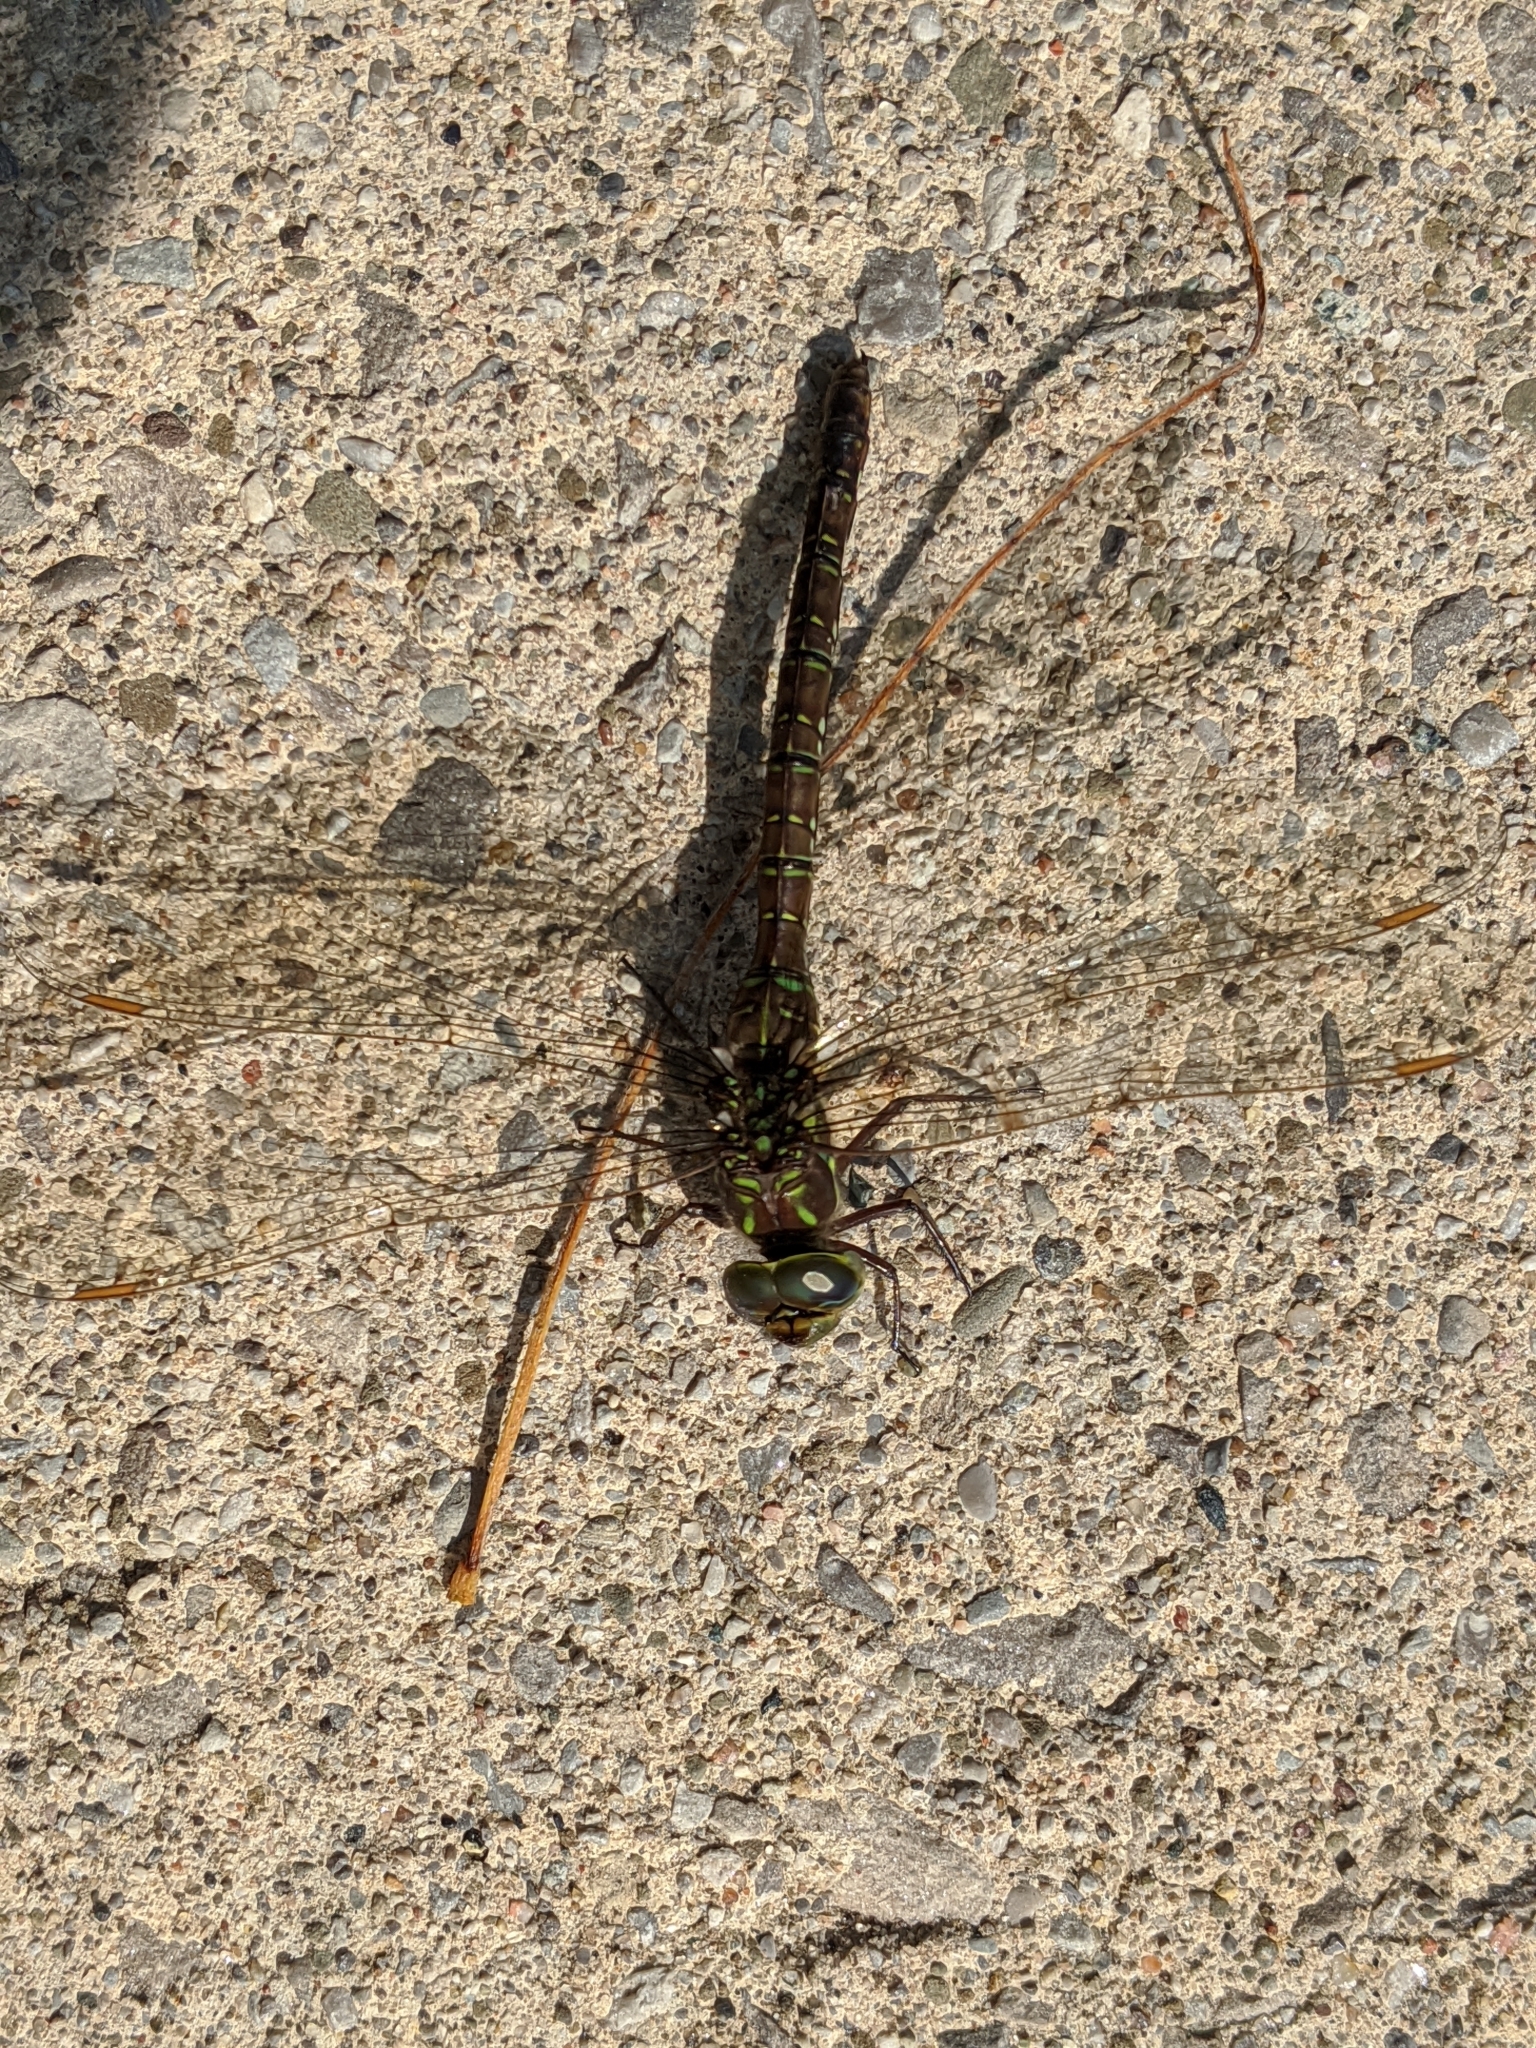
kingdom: Animalia
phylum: Arthropoda
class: Insecta
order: Odonata
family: Aeshnidae
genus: Aeshna
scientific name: Aeshna umbrosa
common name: Shadow darner
